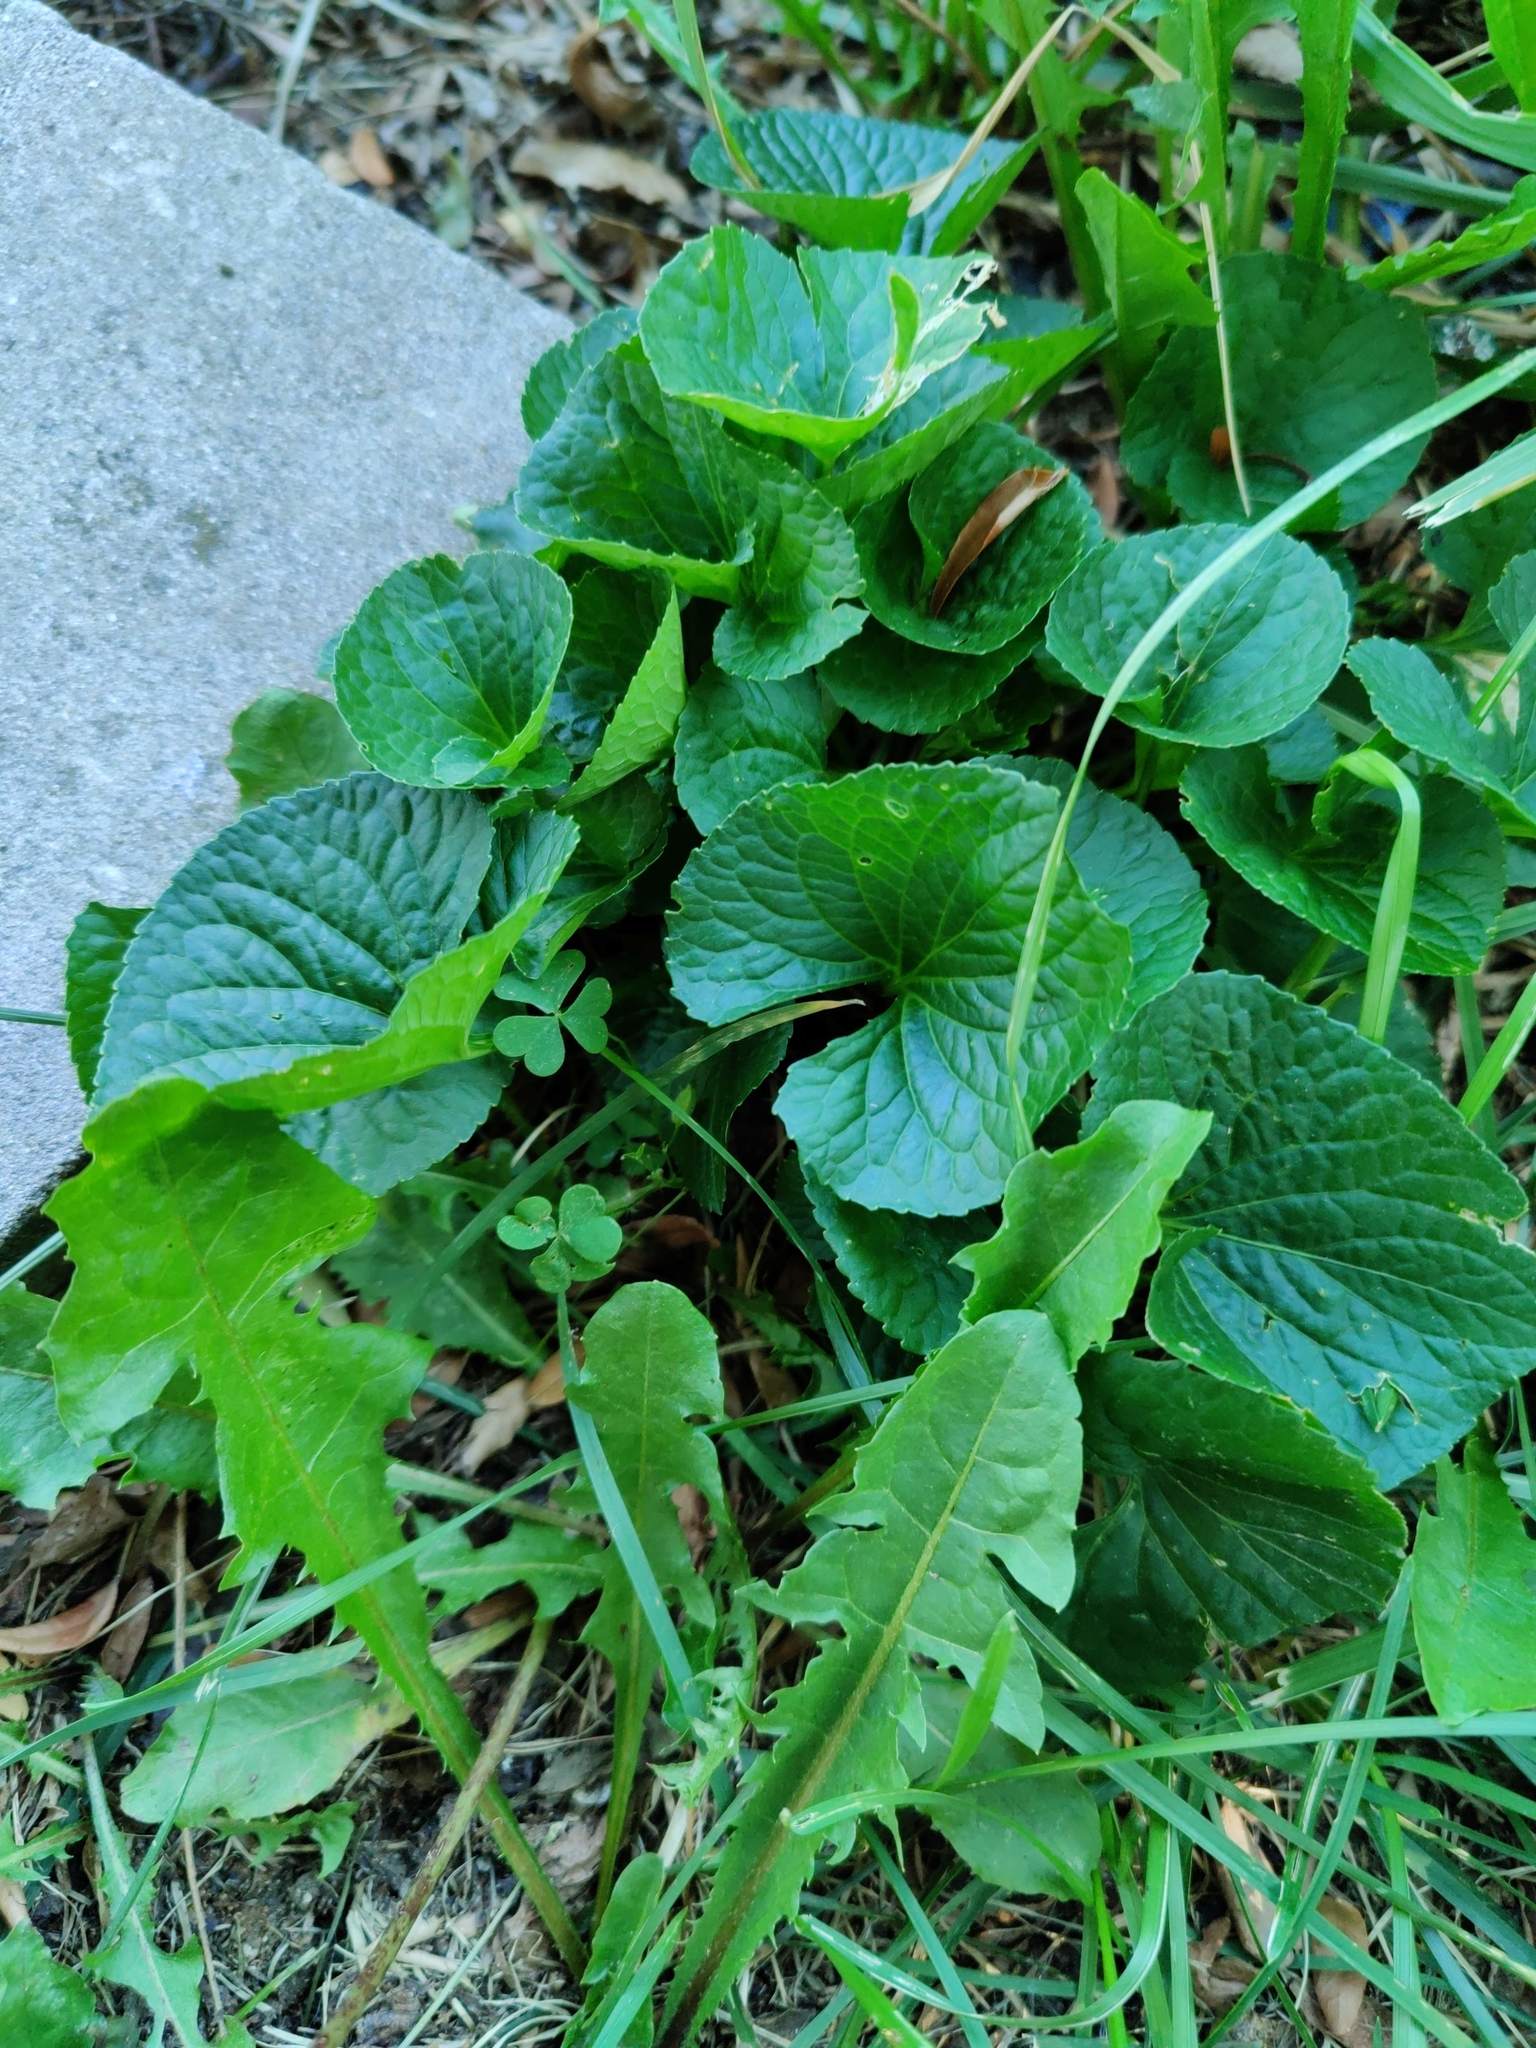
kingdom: Plantae
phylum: Tracheophyta
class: Magnoliopsida
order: Malpighiales
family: Violaceae
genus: Viola
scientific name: Viola sororia
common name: Dooryard violet
